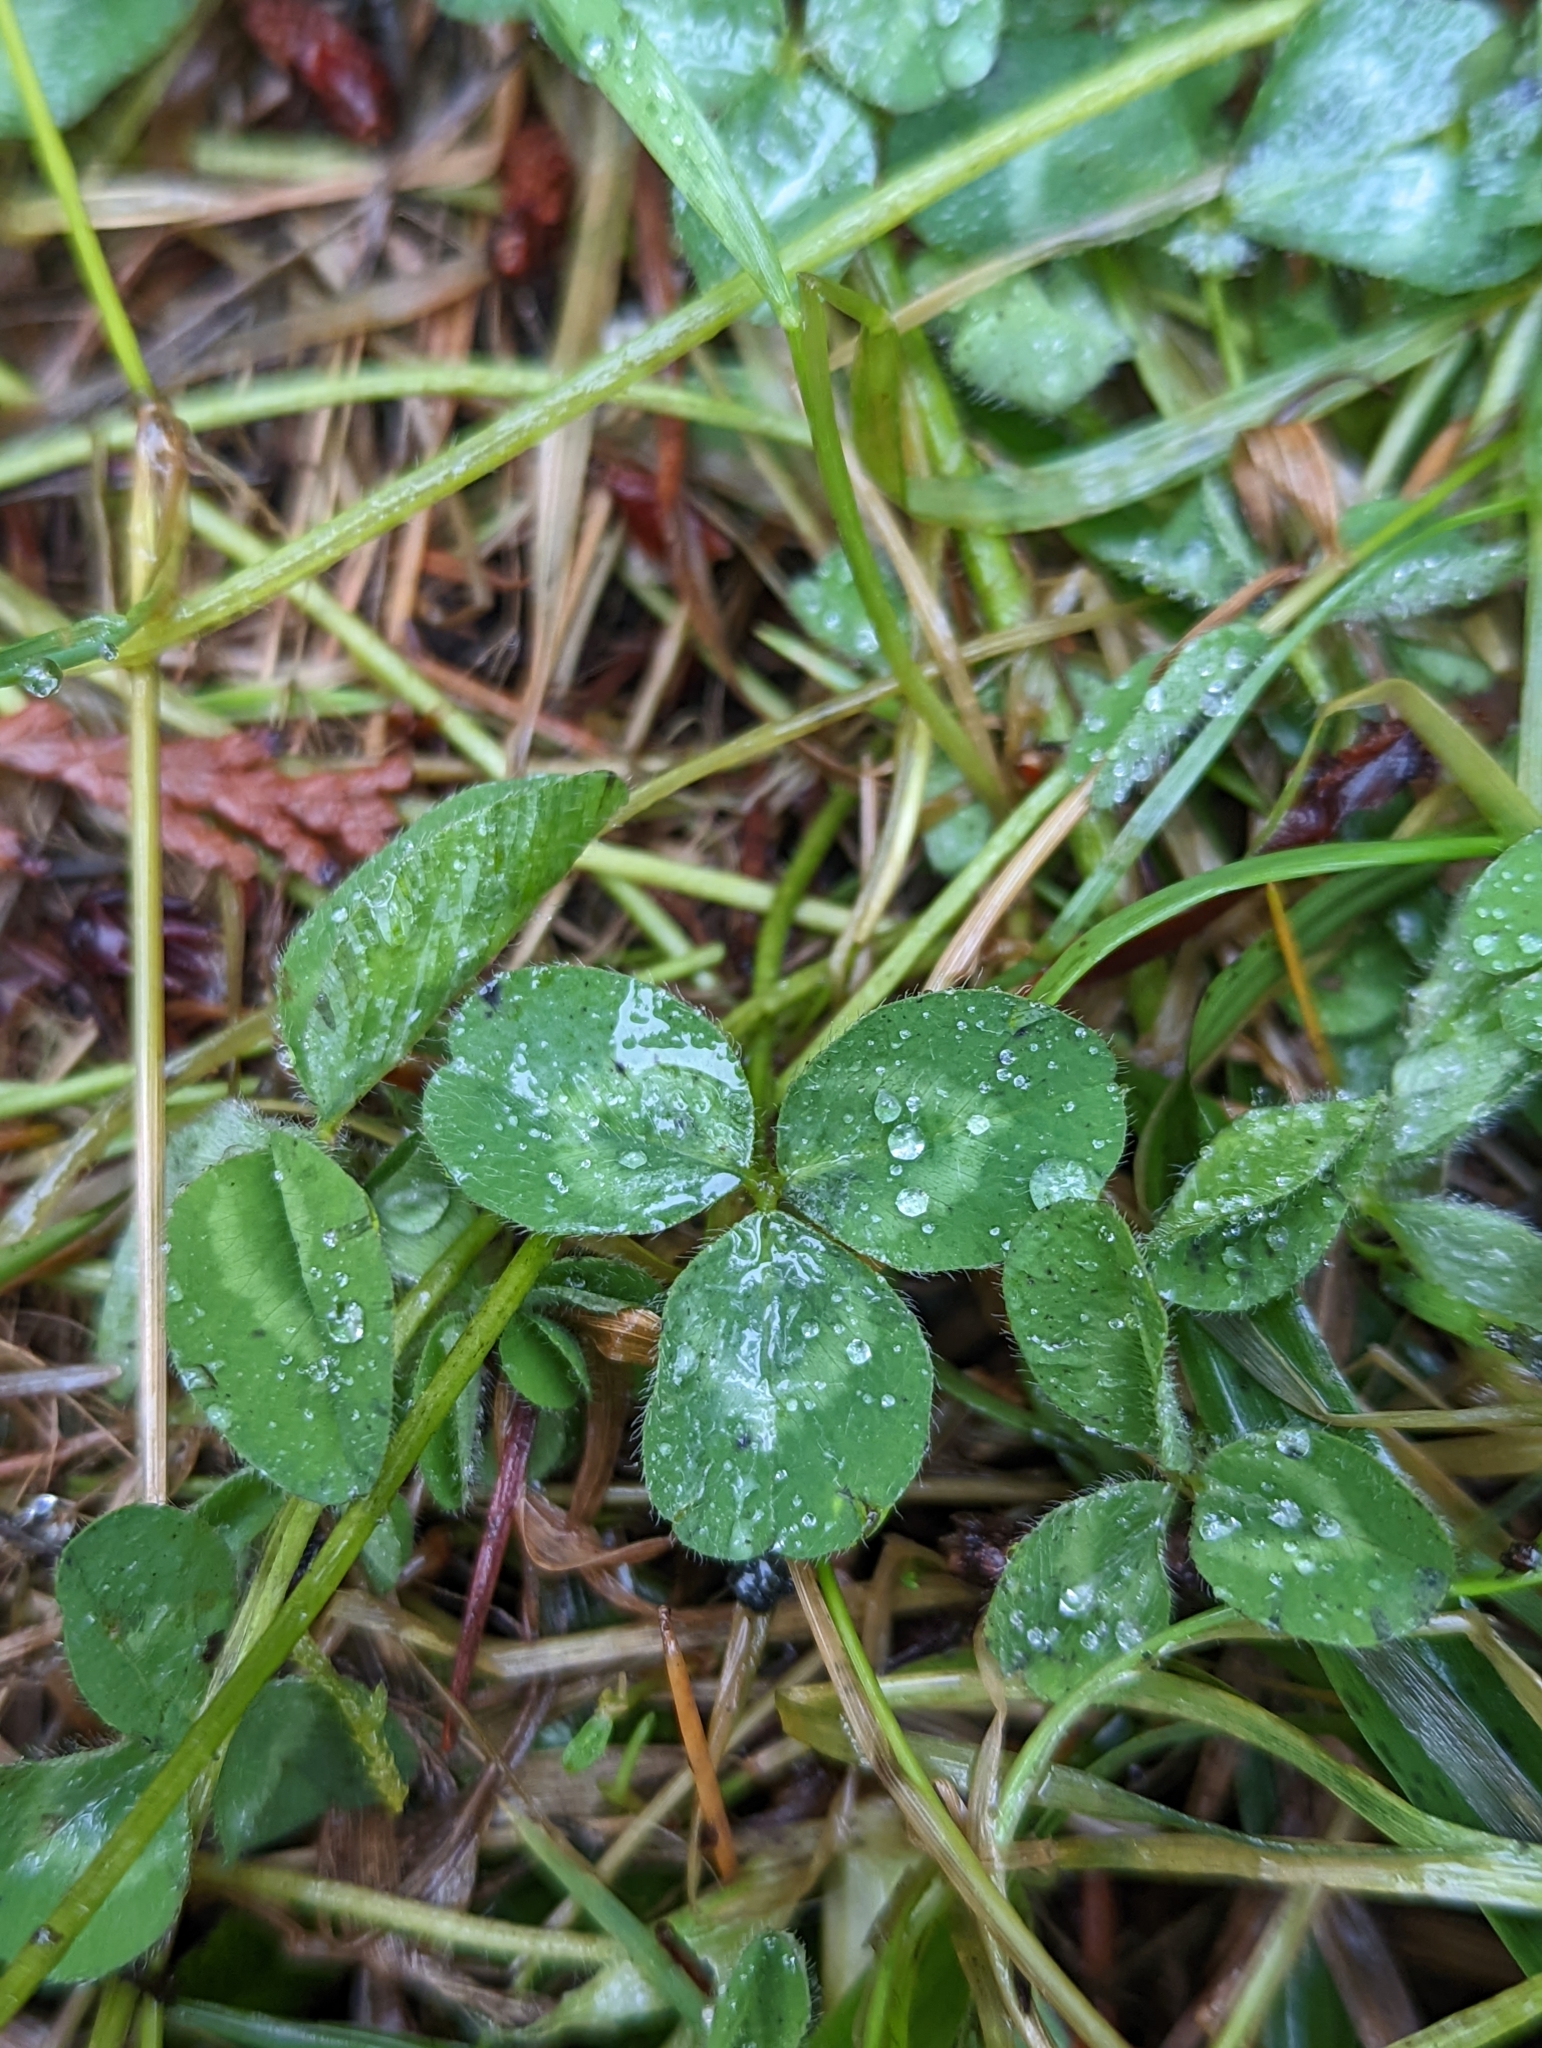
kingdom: Plantae
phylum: Tracheophyta
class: Magnoliopsida
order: Fabales
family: Fabaceae
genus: Trifolium
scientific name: Trifolium pratense
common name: Red clover
